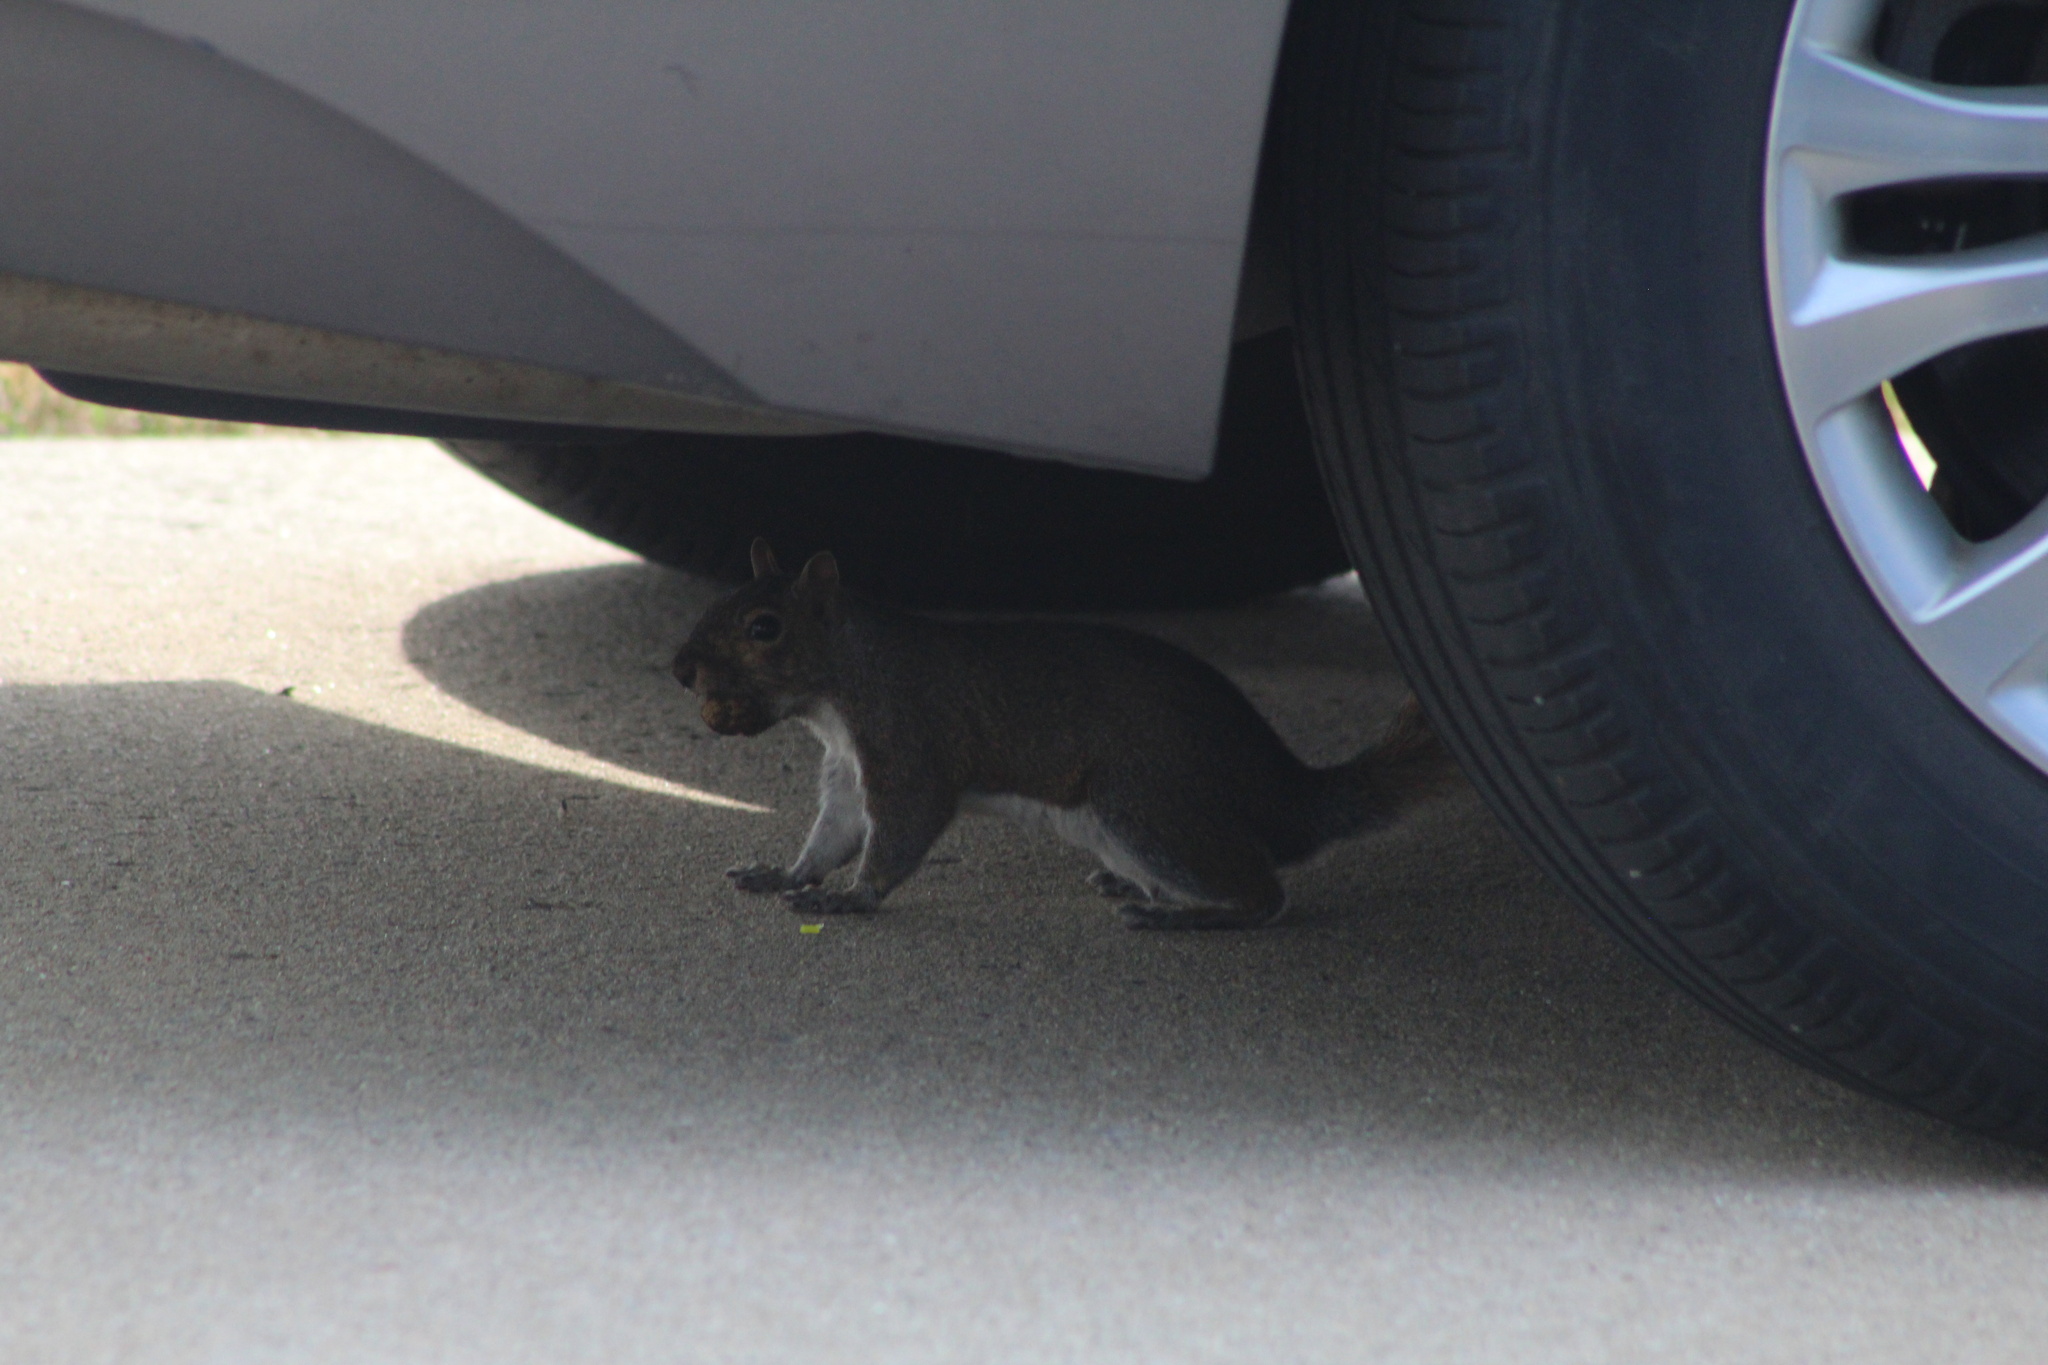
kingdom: Animalia
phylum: Chordata
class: Mammalia
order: Rodentia
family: Sciuridae
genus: Sciurus
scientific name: Sciurus carolinensis
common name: Eastern gray squirrel
